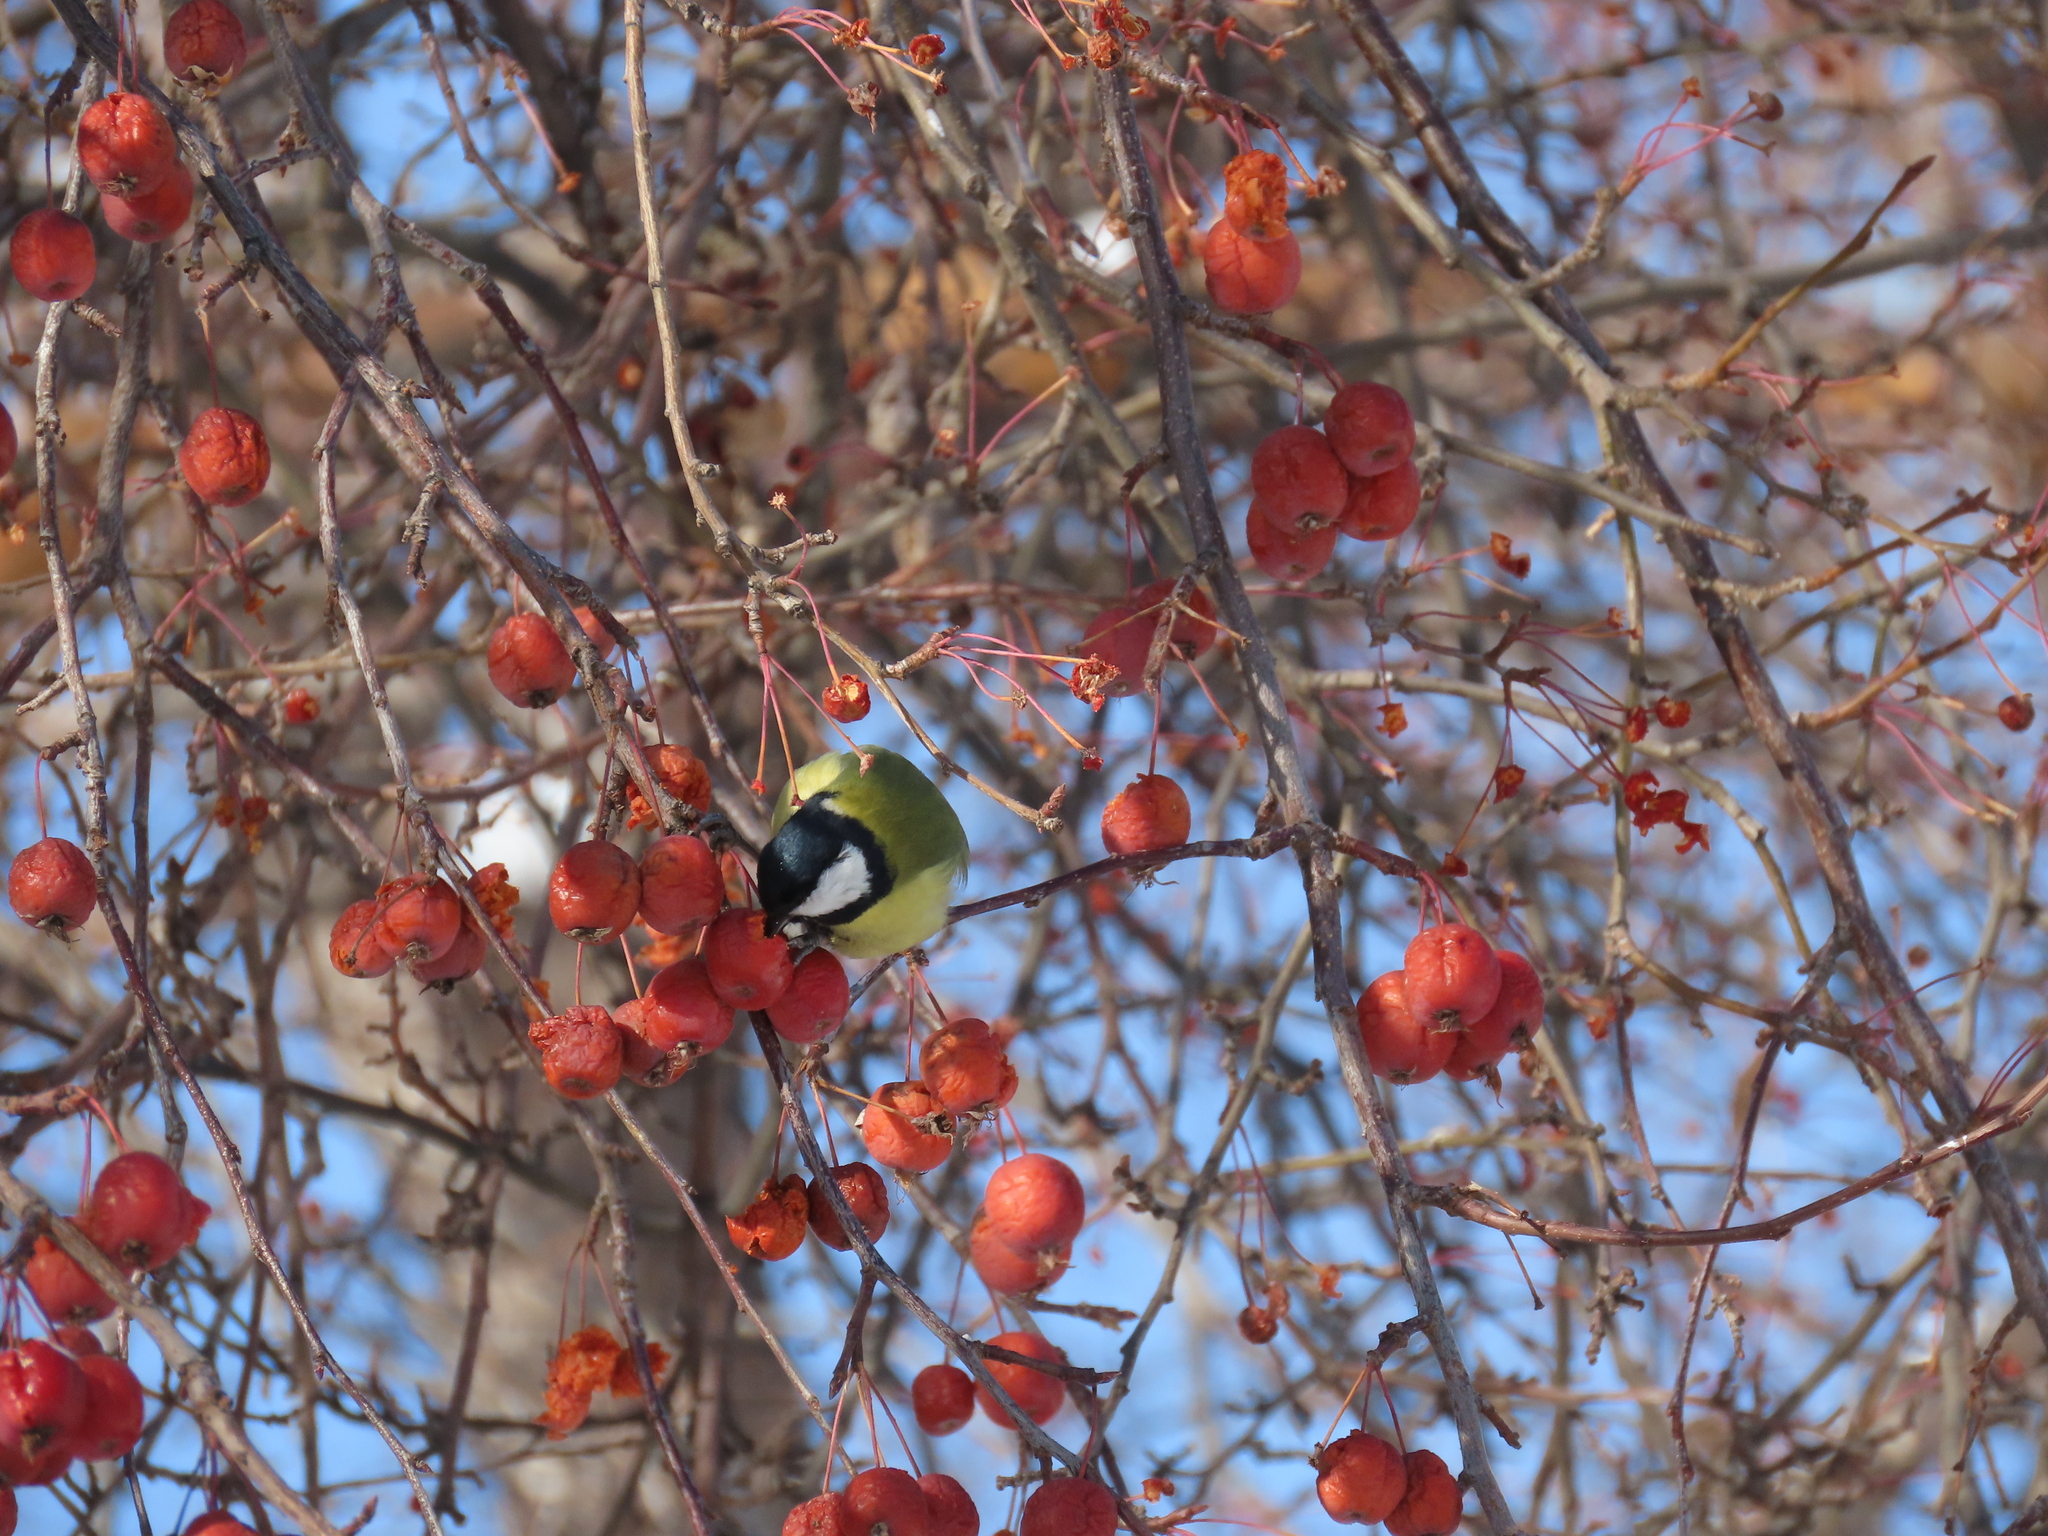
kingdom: Animalia
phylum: Chordata
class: Aves
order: Passeriformes
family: Paridae
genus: Parus
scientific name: Parus major
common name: Great tit
